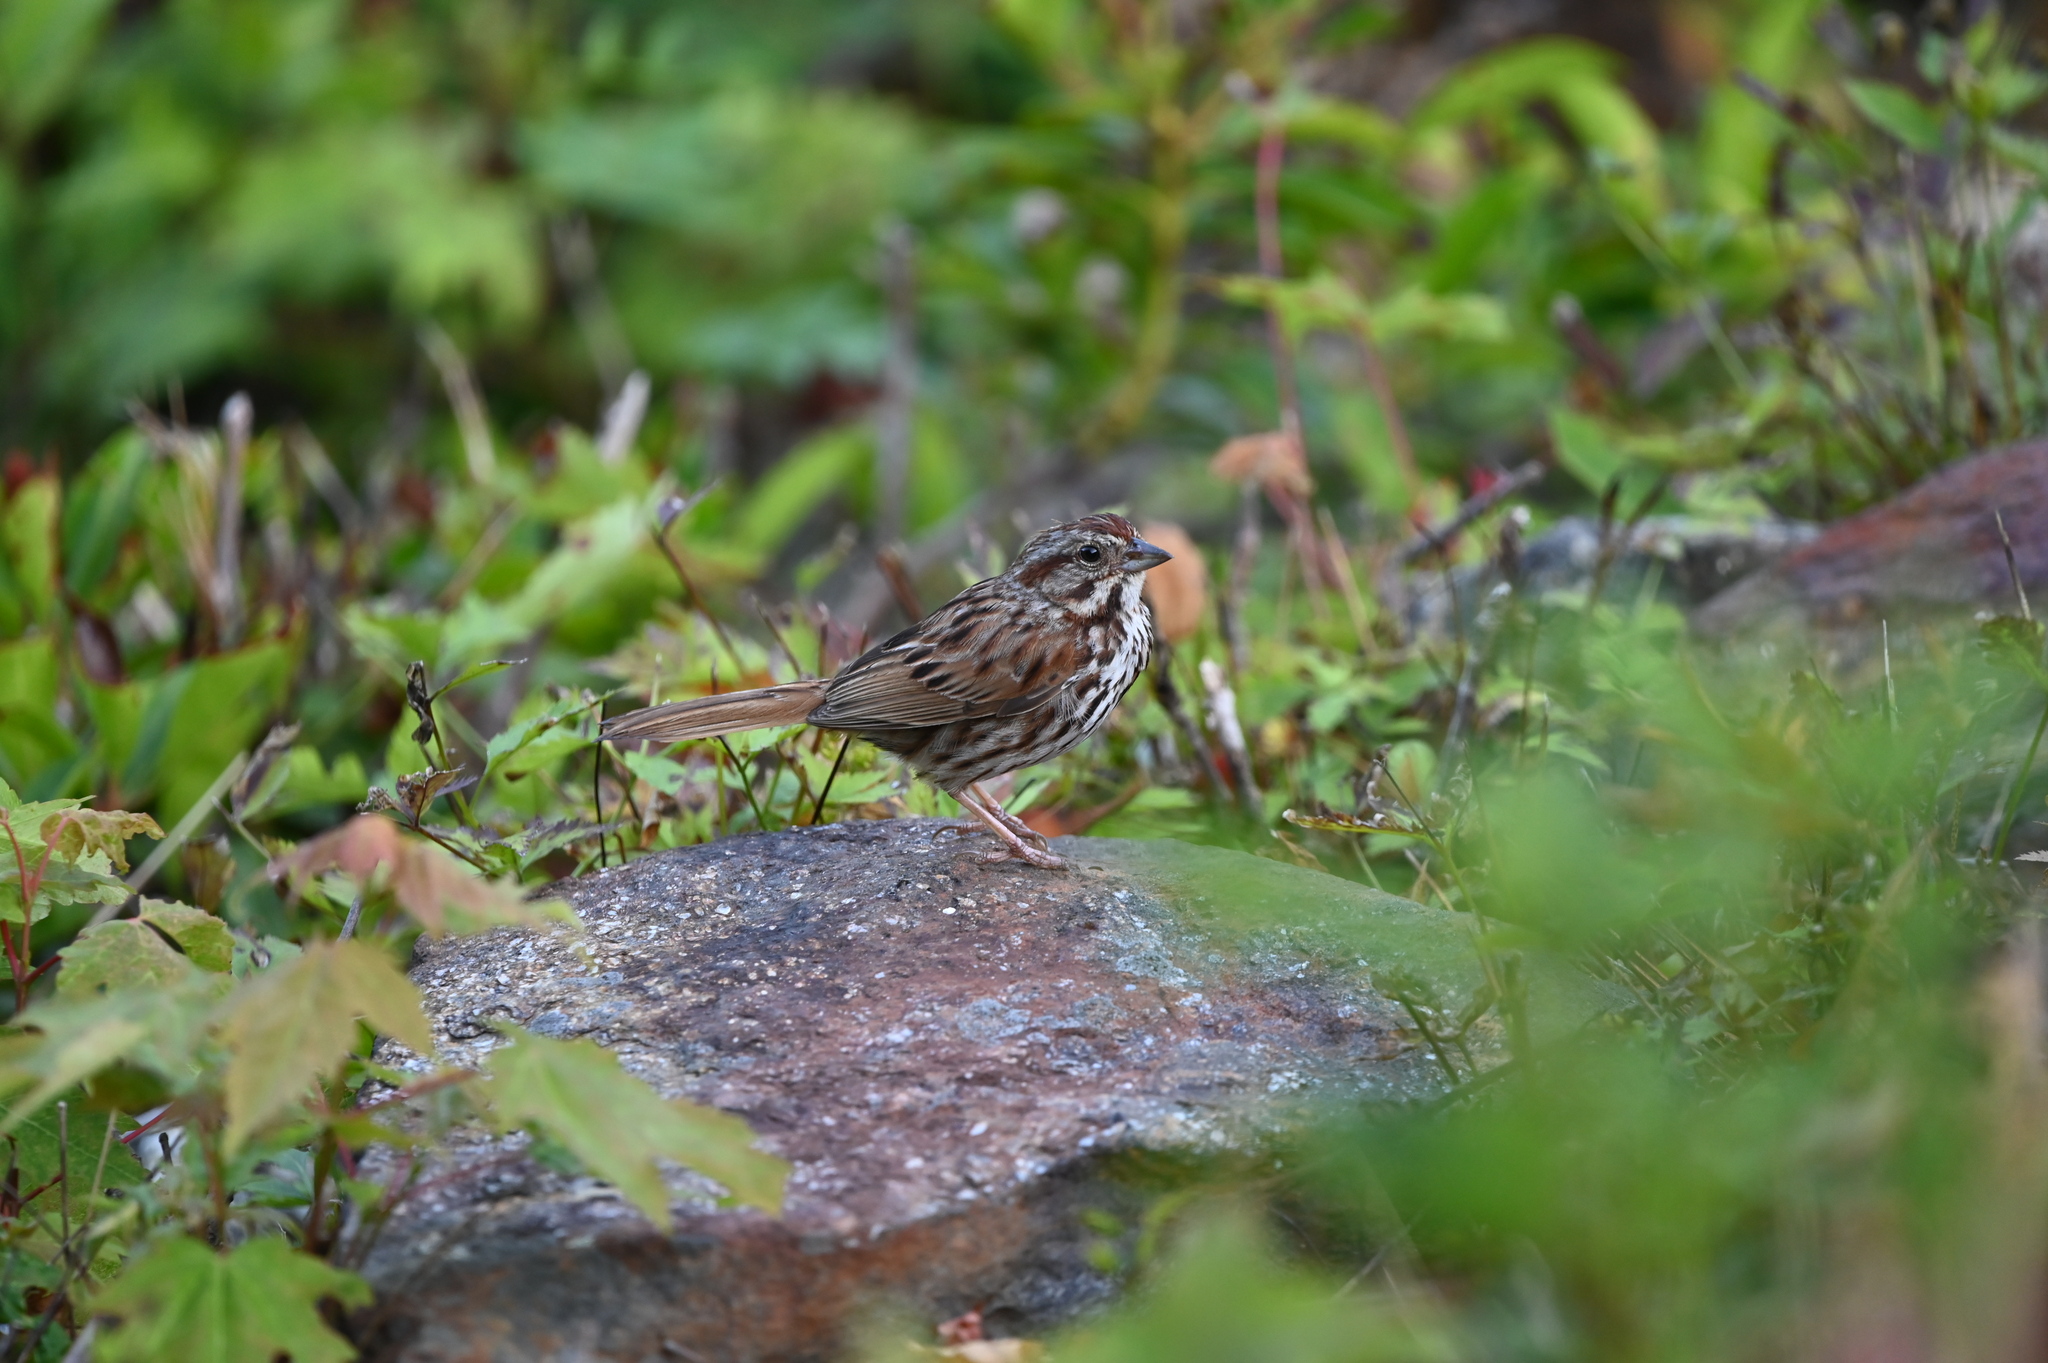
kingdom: Animalia
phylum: Chordata
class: Aves
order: Passeriformes
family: Passerellidae
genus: Melospiza
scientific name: Melospiza melodia
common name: Song sparrow
